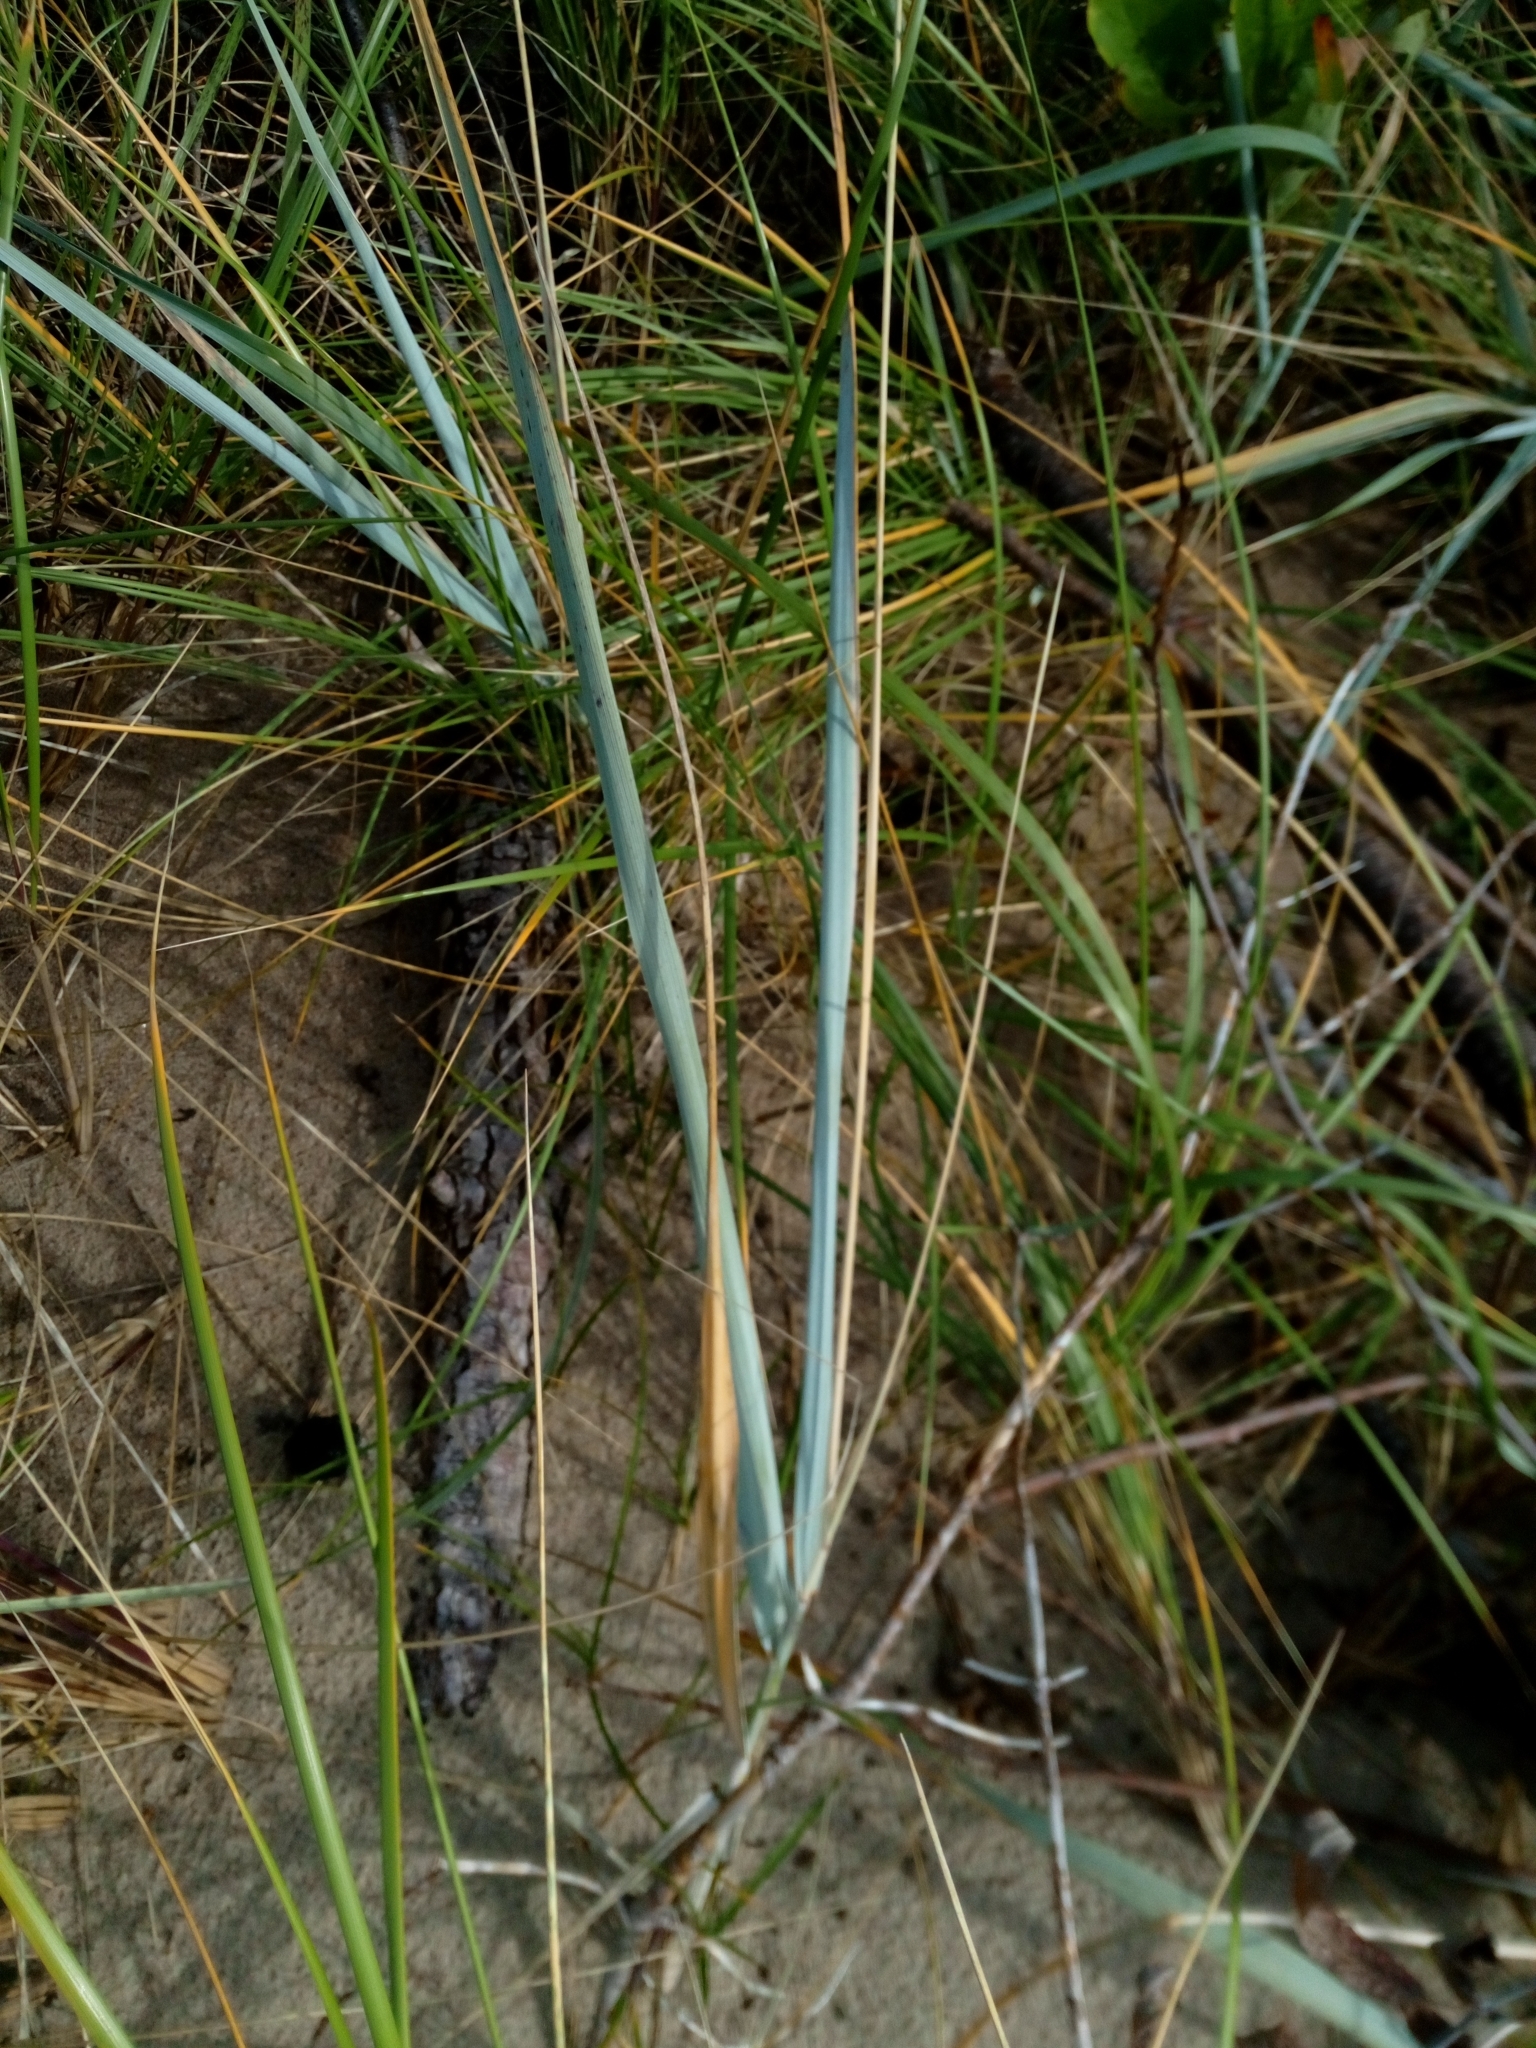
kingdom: Plantae
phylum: Tracheophyta
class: Liliopsida
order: Poales
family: Poaceae
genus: Leymus
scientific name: Leymus arenarius
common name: Lyme-grass
